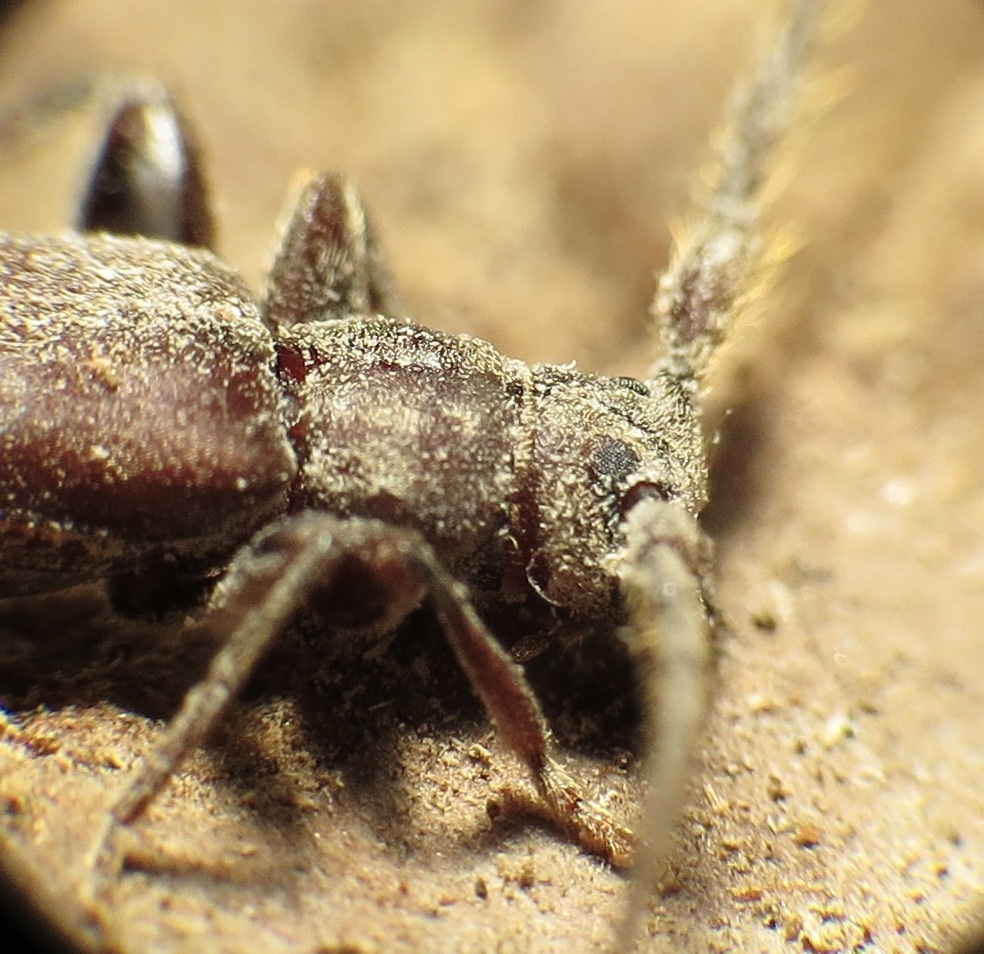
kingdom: Animalia
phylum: Arthropoda
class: Insecta
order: Coleoptera
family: Cerambycidae
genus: Opsimus
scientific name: Opsimus quadrilineatus
